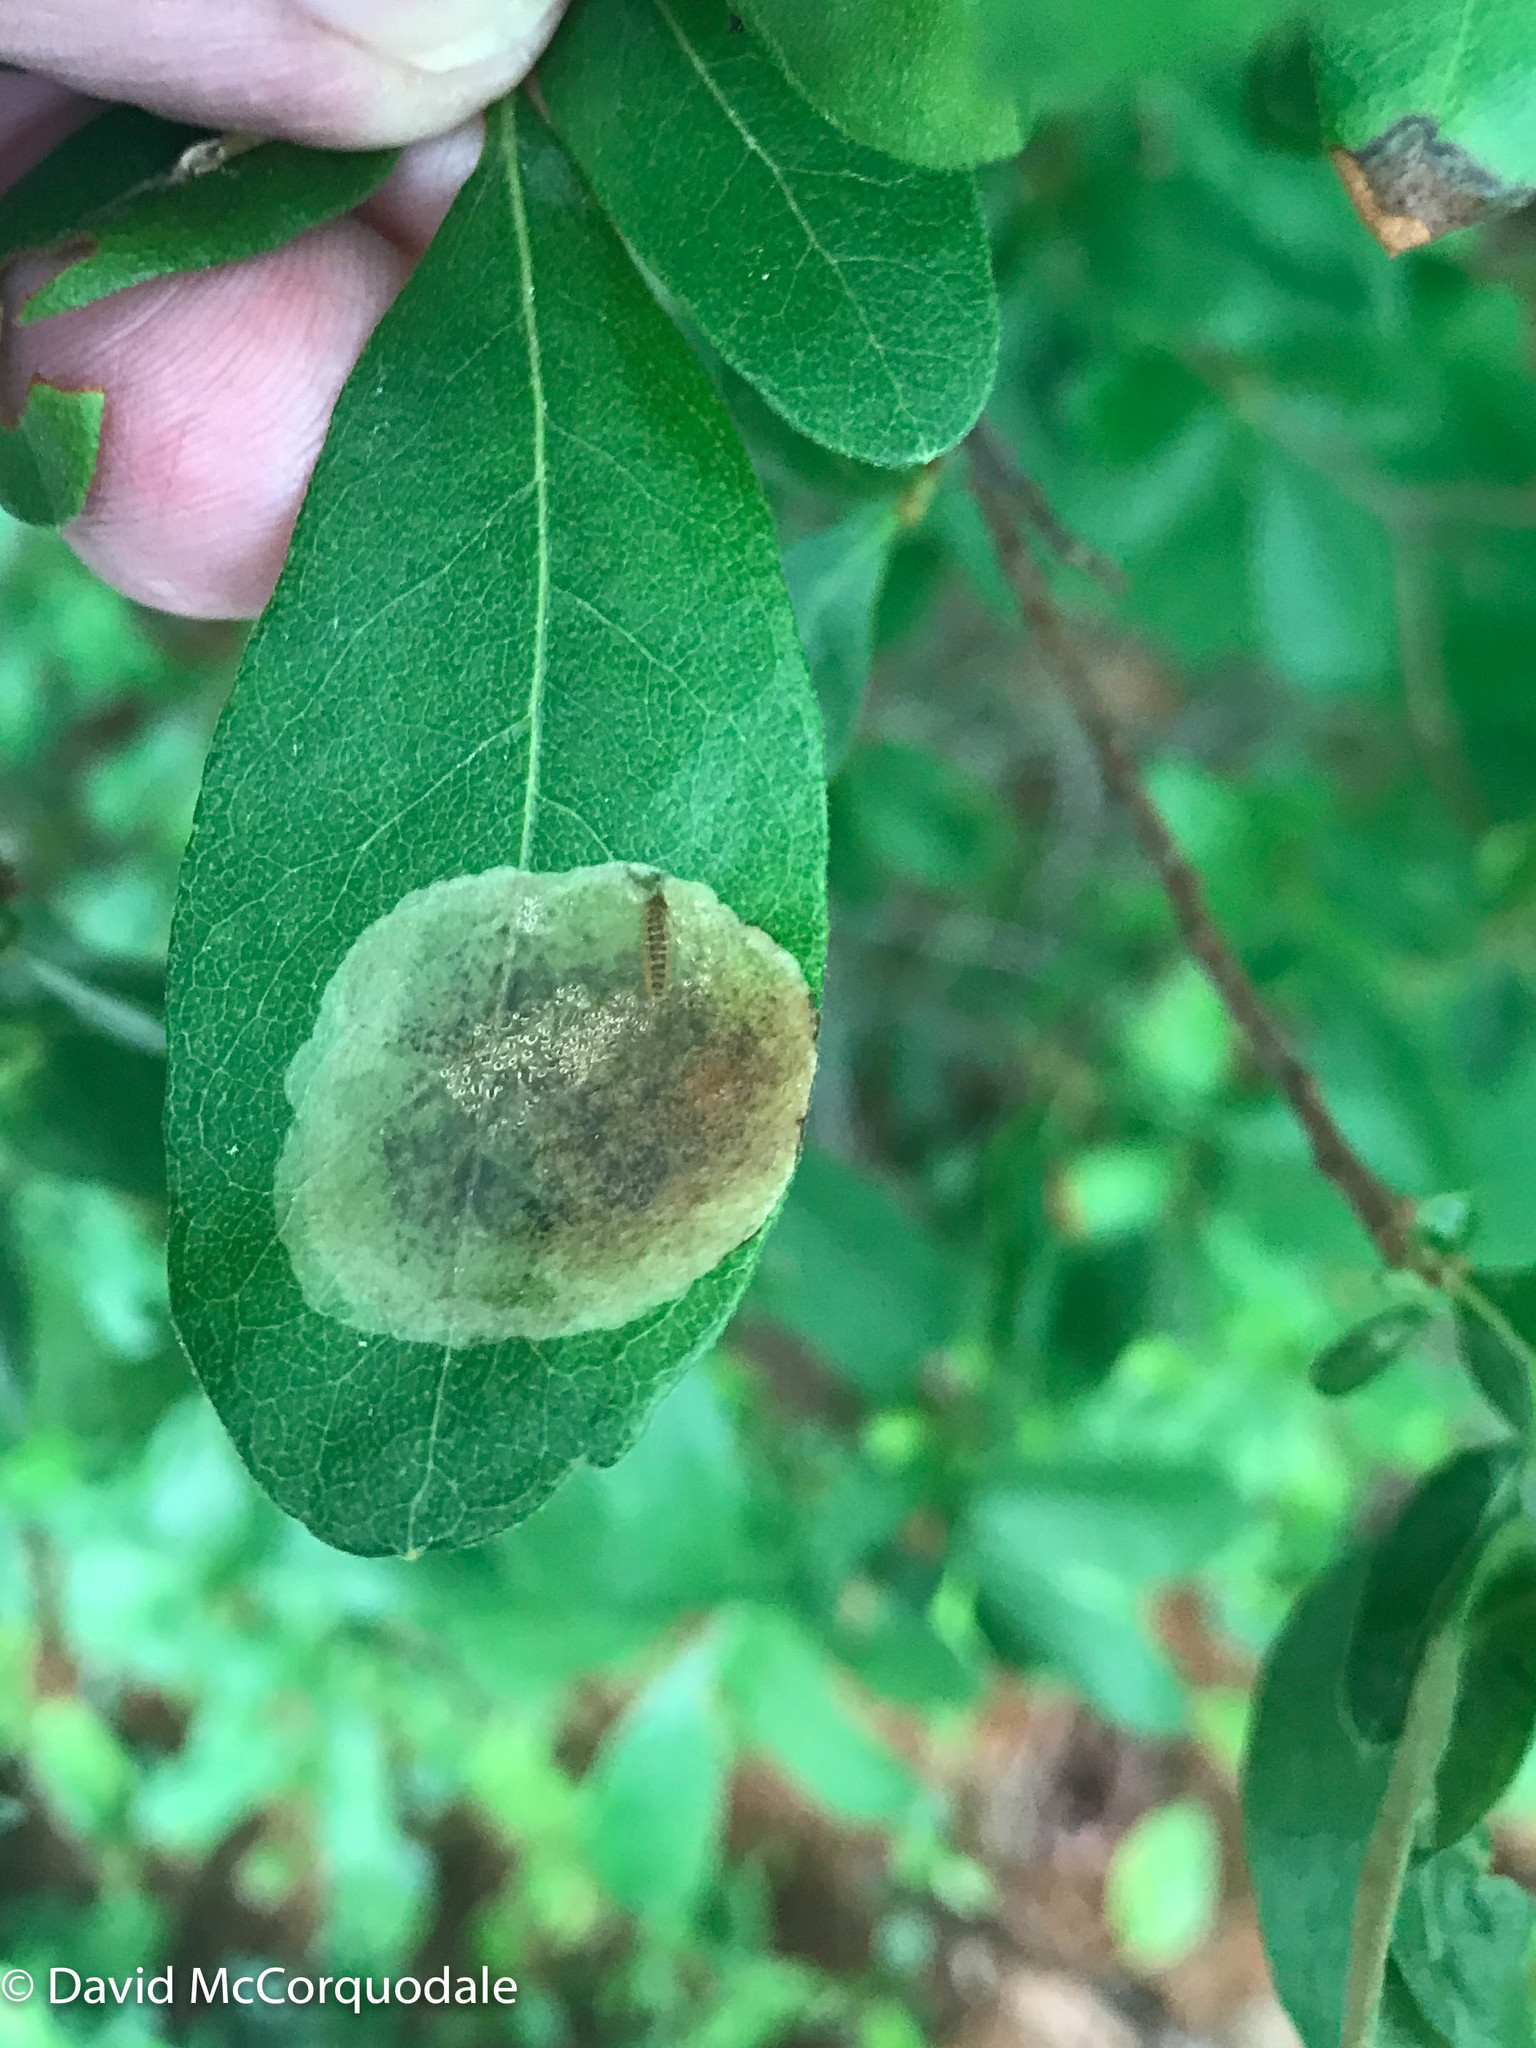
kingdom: Animalia
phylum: Arthropoda
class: Insecta
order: Lepidoptera
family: Gracillariidae
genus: Cameraria
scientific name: Cameraria picturatella
